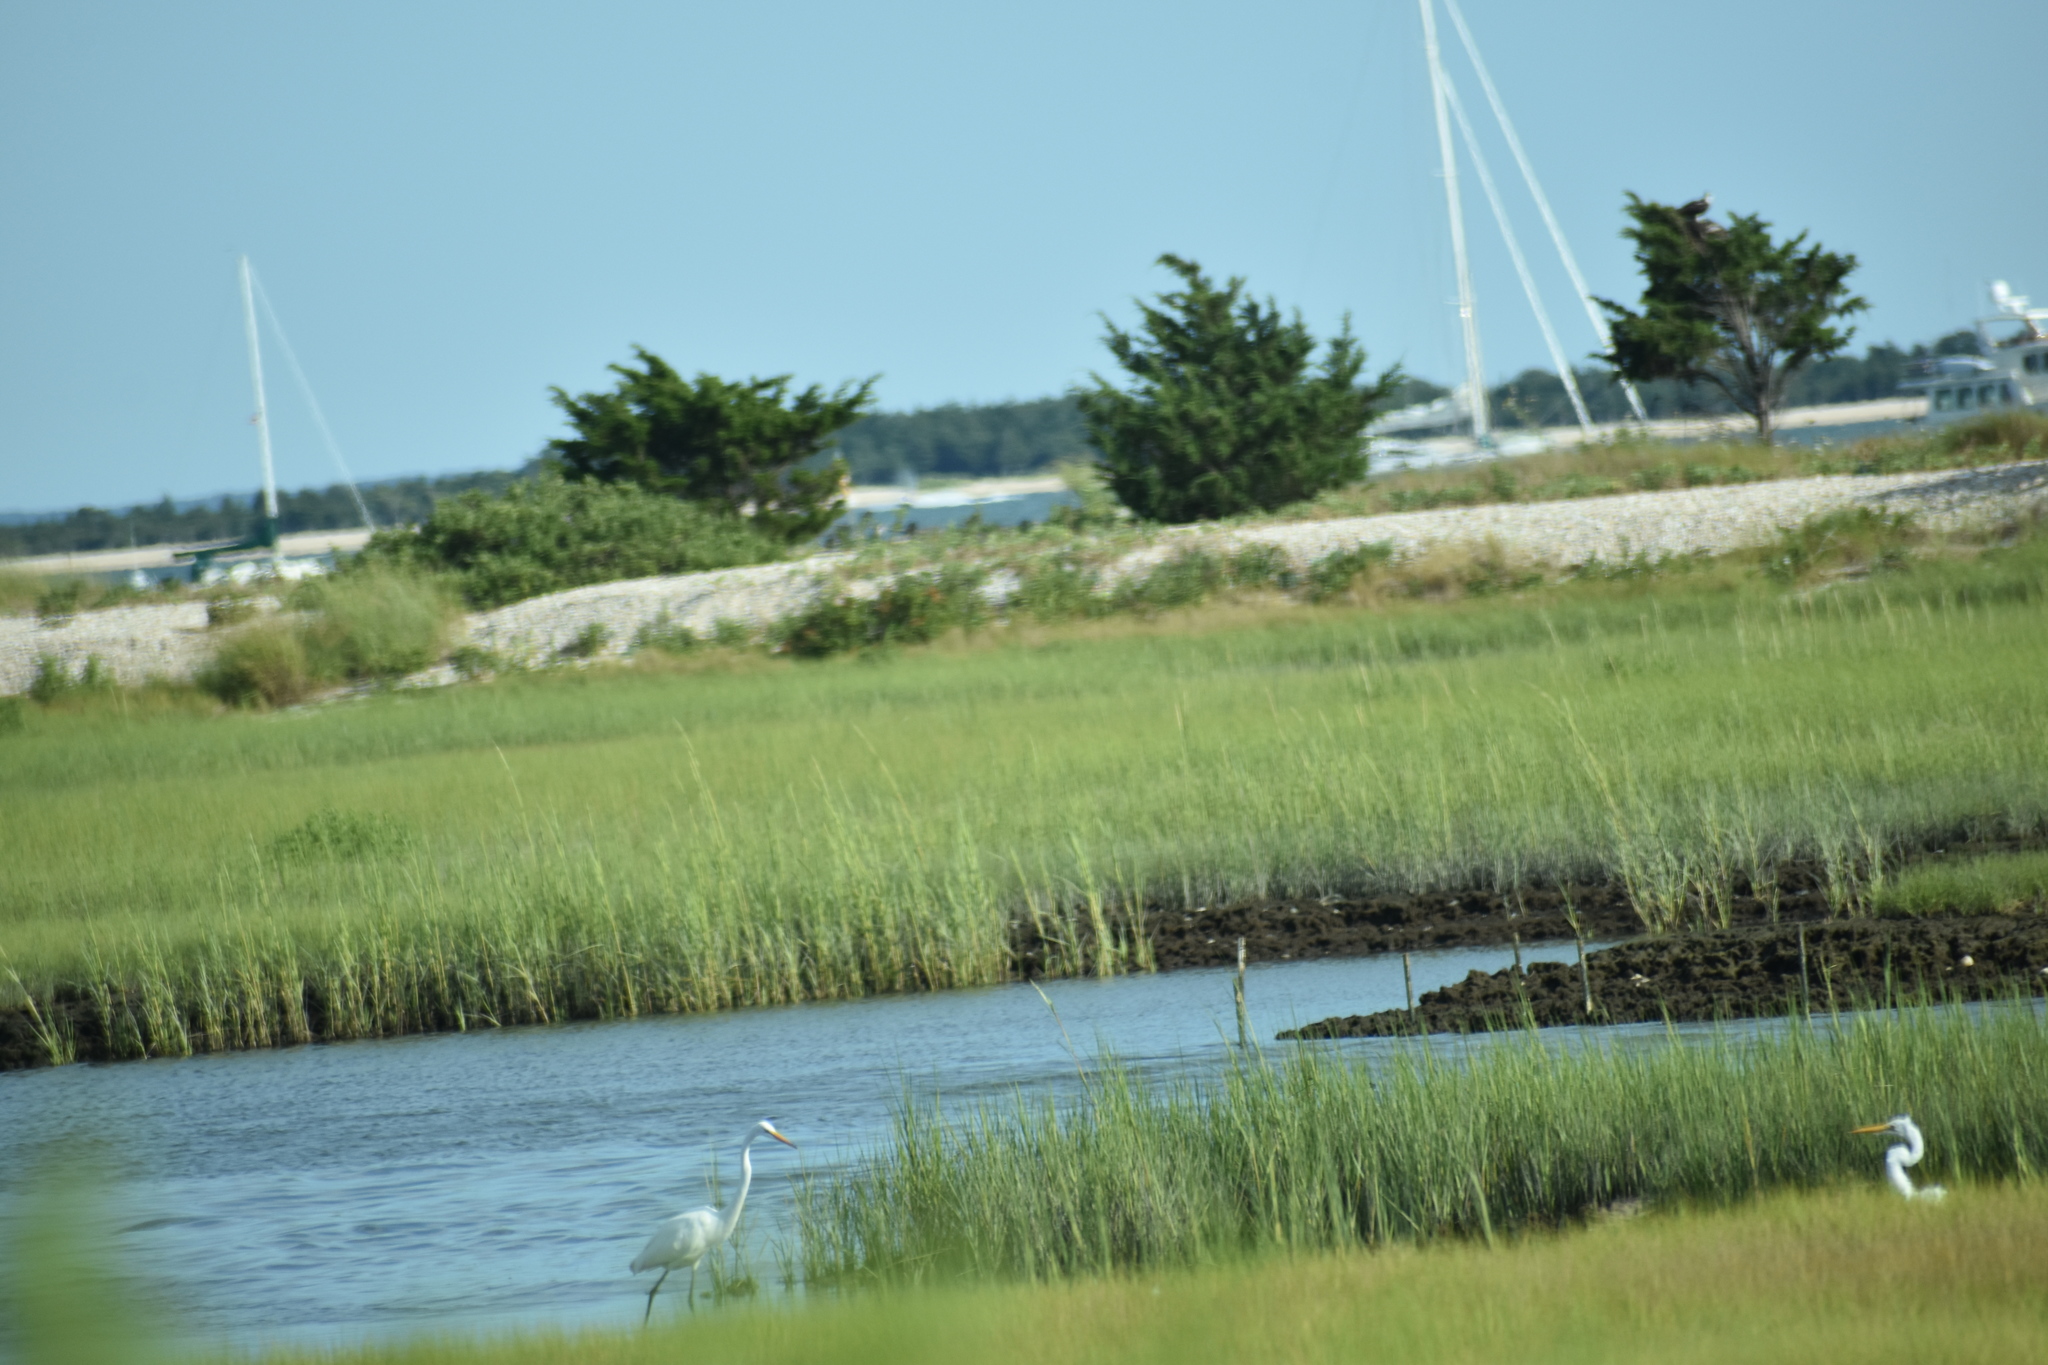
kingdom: Animalia
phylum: Chordata
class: Aves
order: Pelecaniformes
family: Ardeidae
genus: Ardea
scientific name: Ardea alba
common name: Great egret
